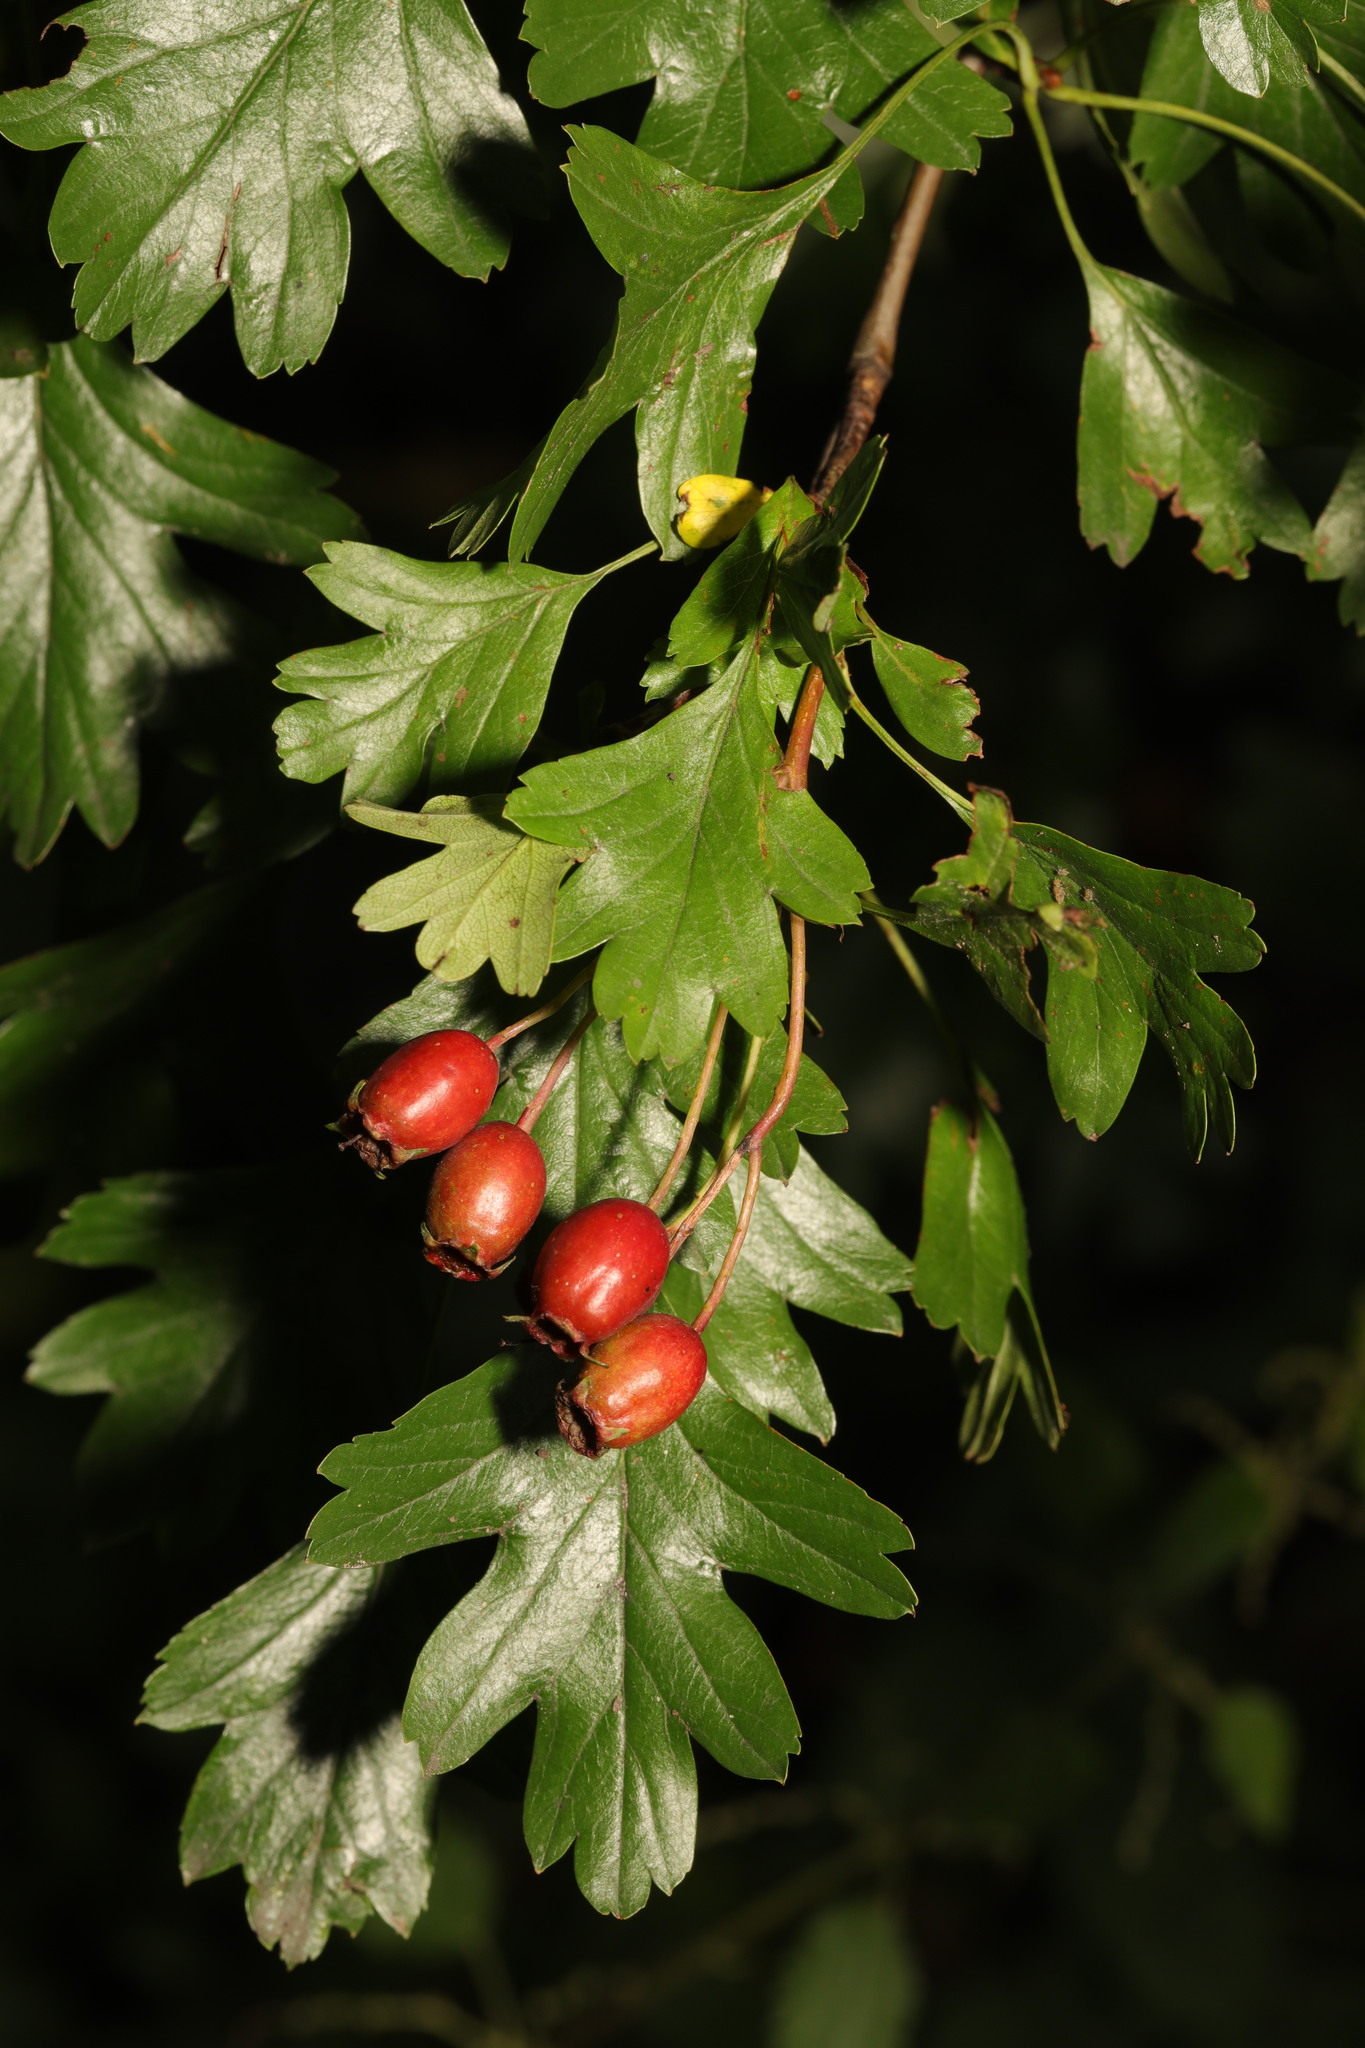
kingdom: Plantae
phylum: Tracheophyta
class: Magnoliopsida
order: Rosales
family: Rosaceae
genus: Crataegus
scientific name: Crataegus monogyna
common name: Hawthorn
